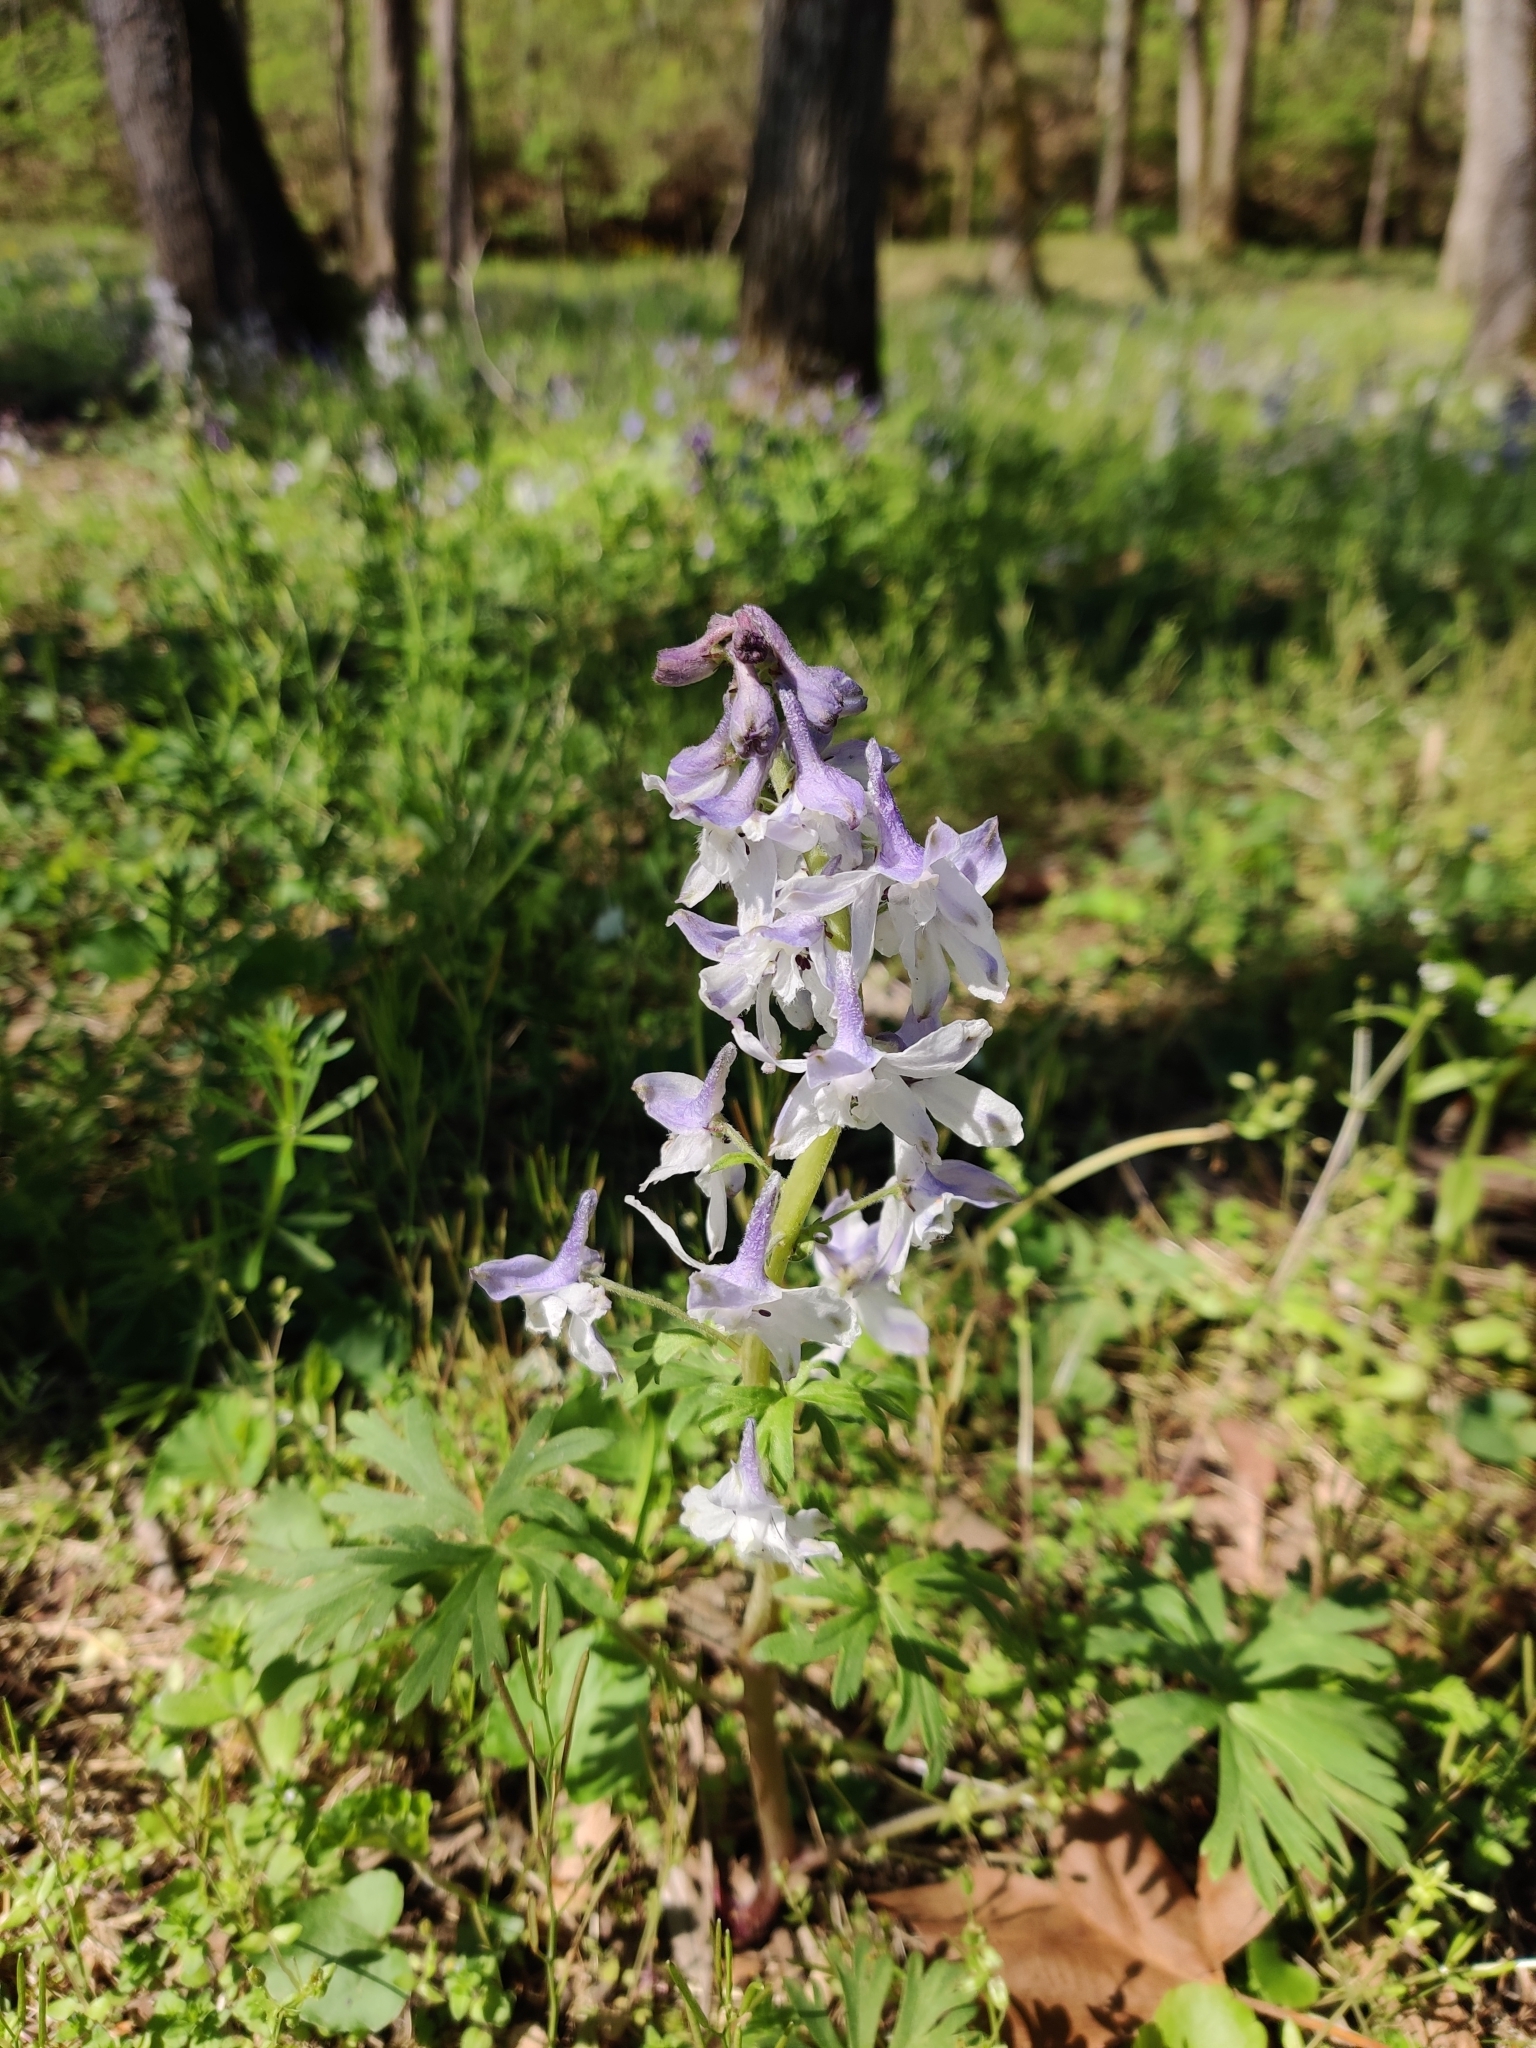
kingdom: Plantae
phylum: Tracheophyta
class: Magnoliopsida
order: Ranunculales
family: Ranunculaceae
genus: Delphinium
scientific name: Delphinium tricorne
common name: Dwarf larkspur
